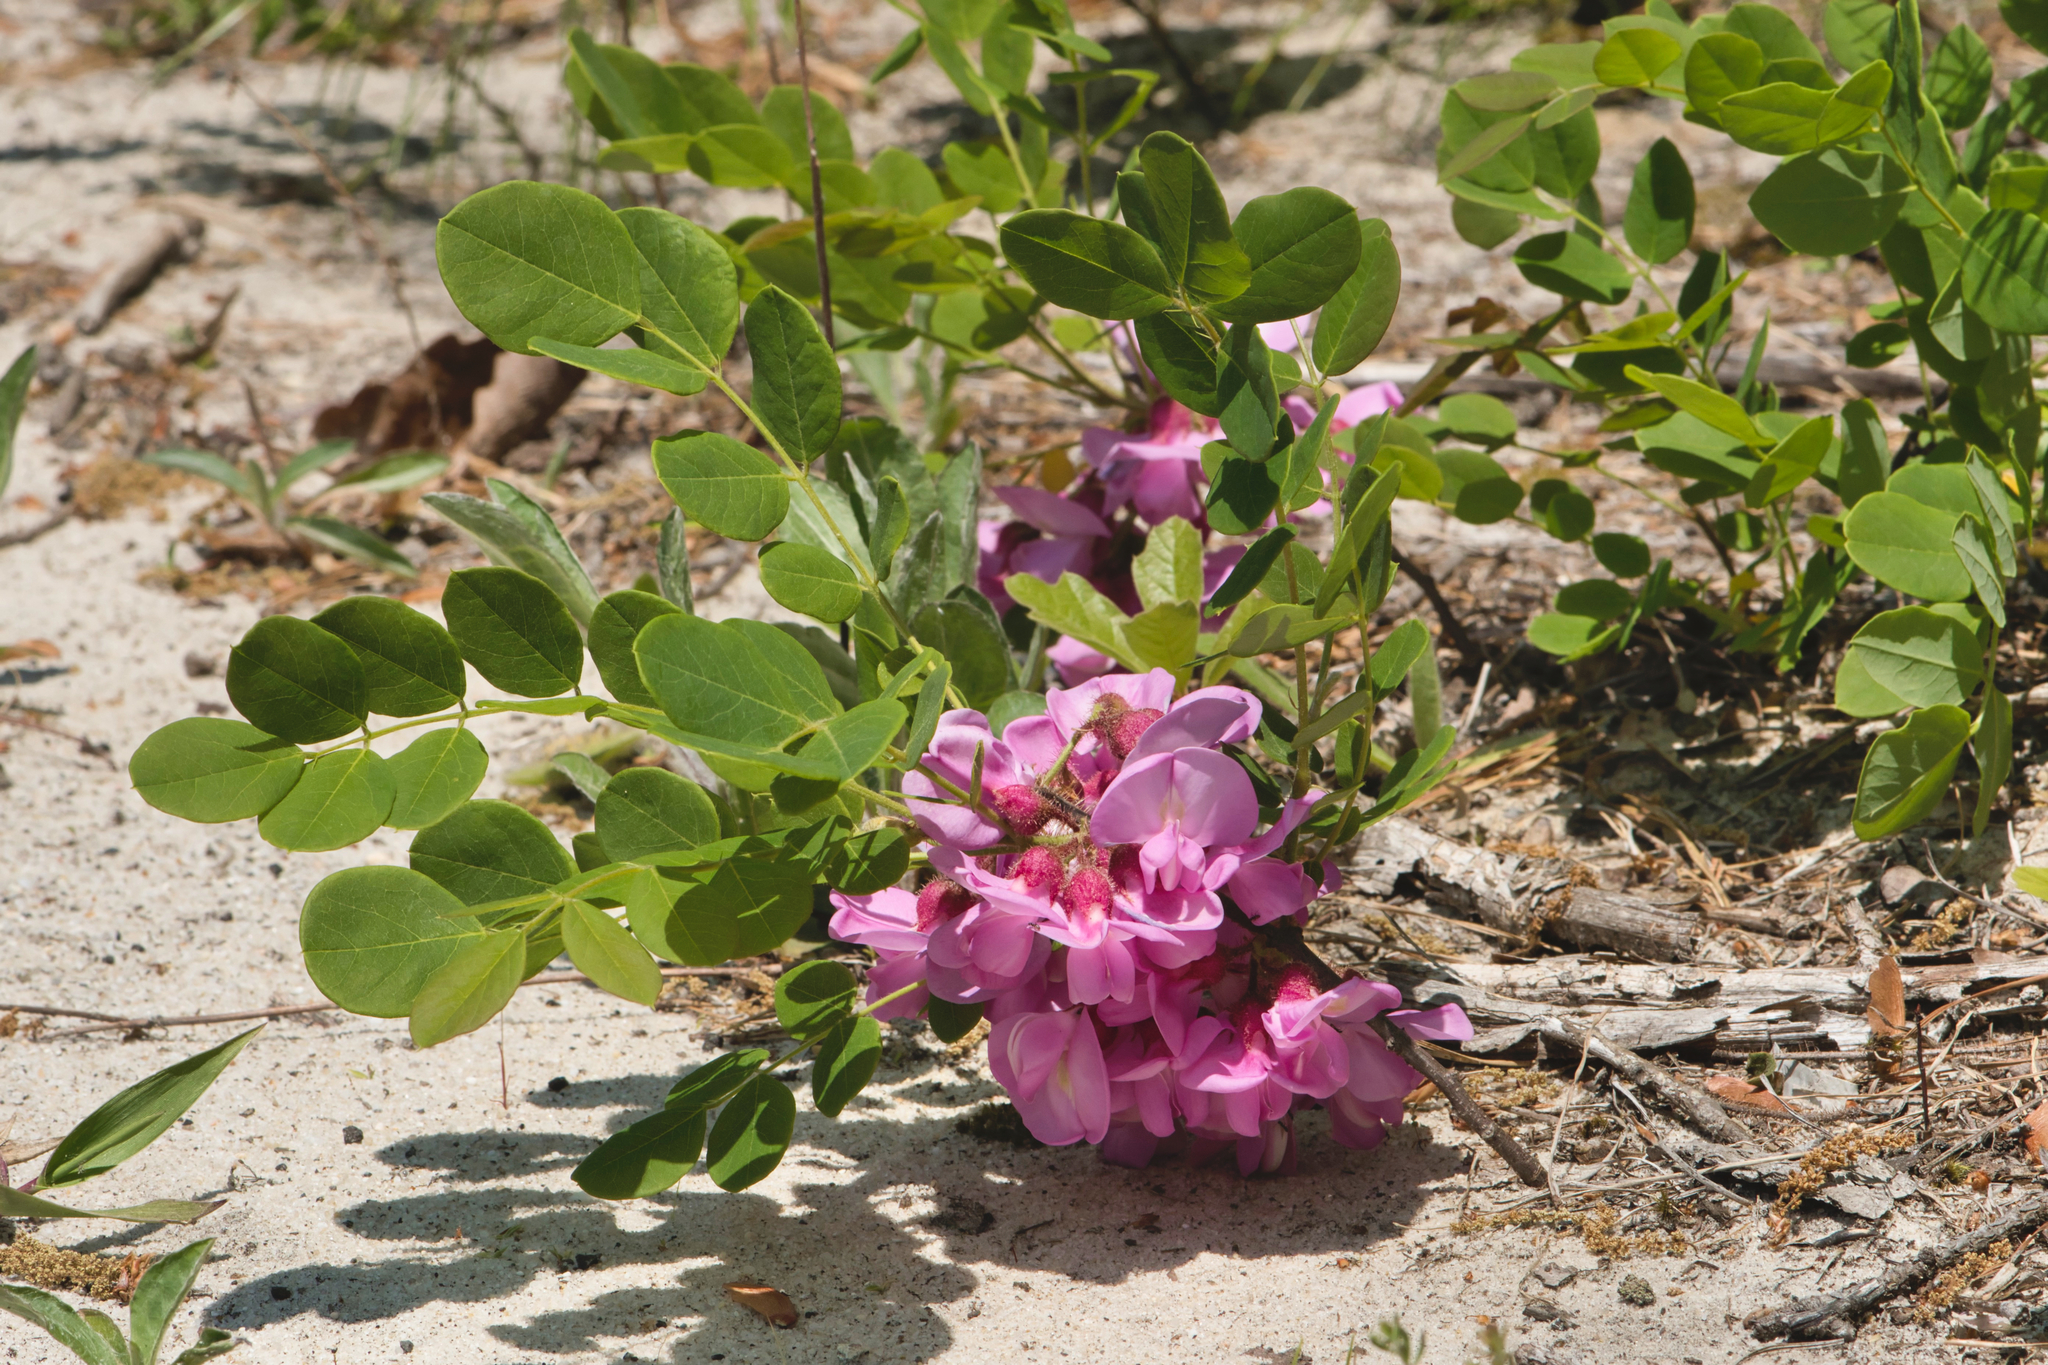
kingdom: Plantae
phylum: Tracheophyta
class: Magnoliopsida
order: Fabales
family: Fabaceae
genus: Robinia
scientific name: Robinia hispida
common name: Bristly locust
